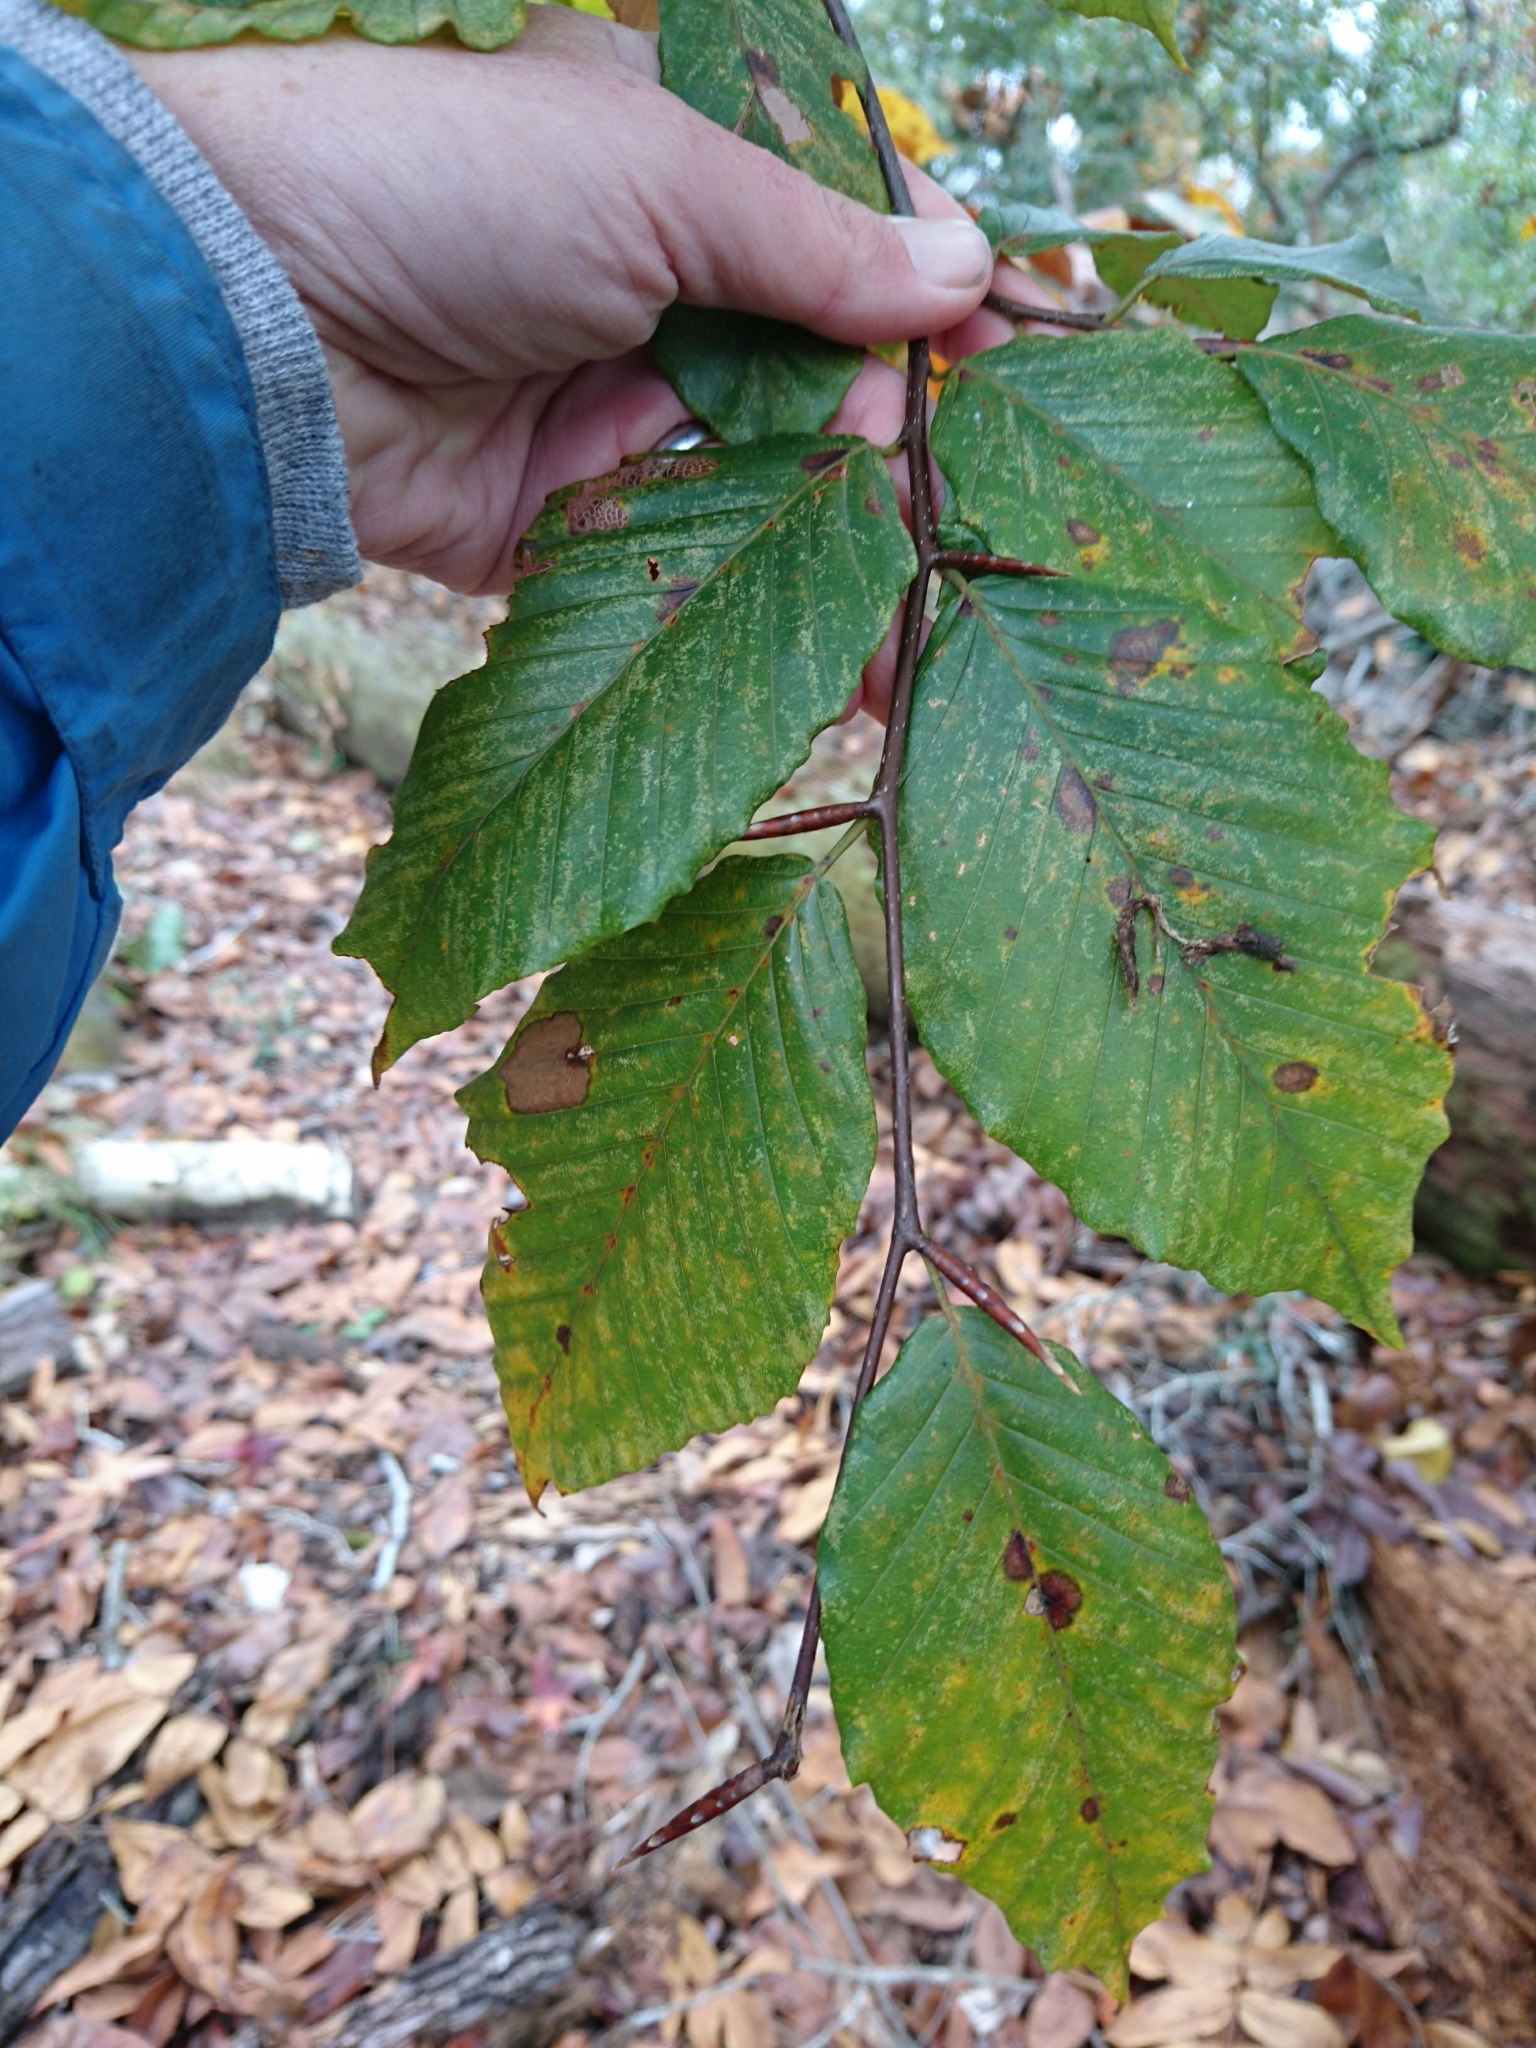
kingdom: Plantae
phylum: Tracheophyta
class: Magnoliopsida
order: Fagales
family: Fagaceae
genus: Fagus
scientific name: Fagus grandifolia
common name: American beech
